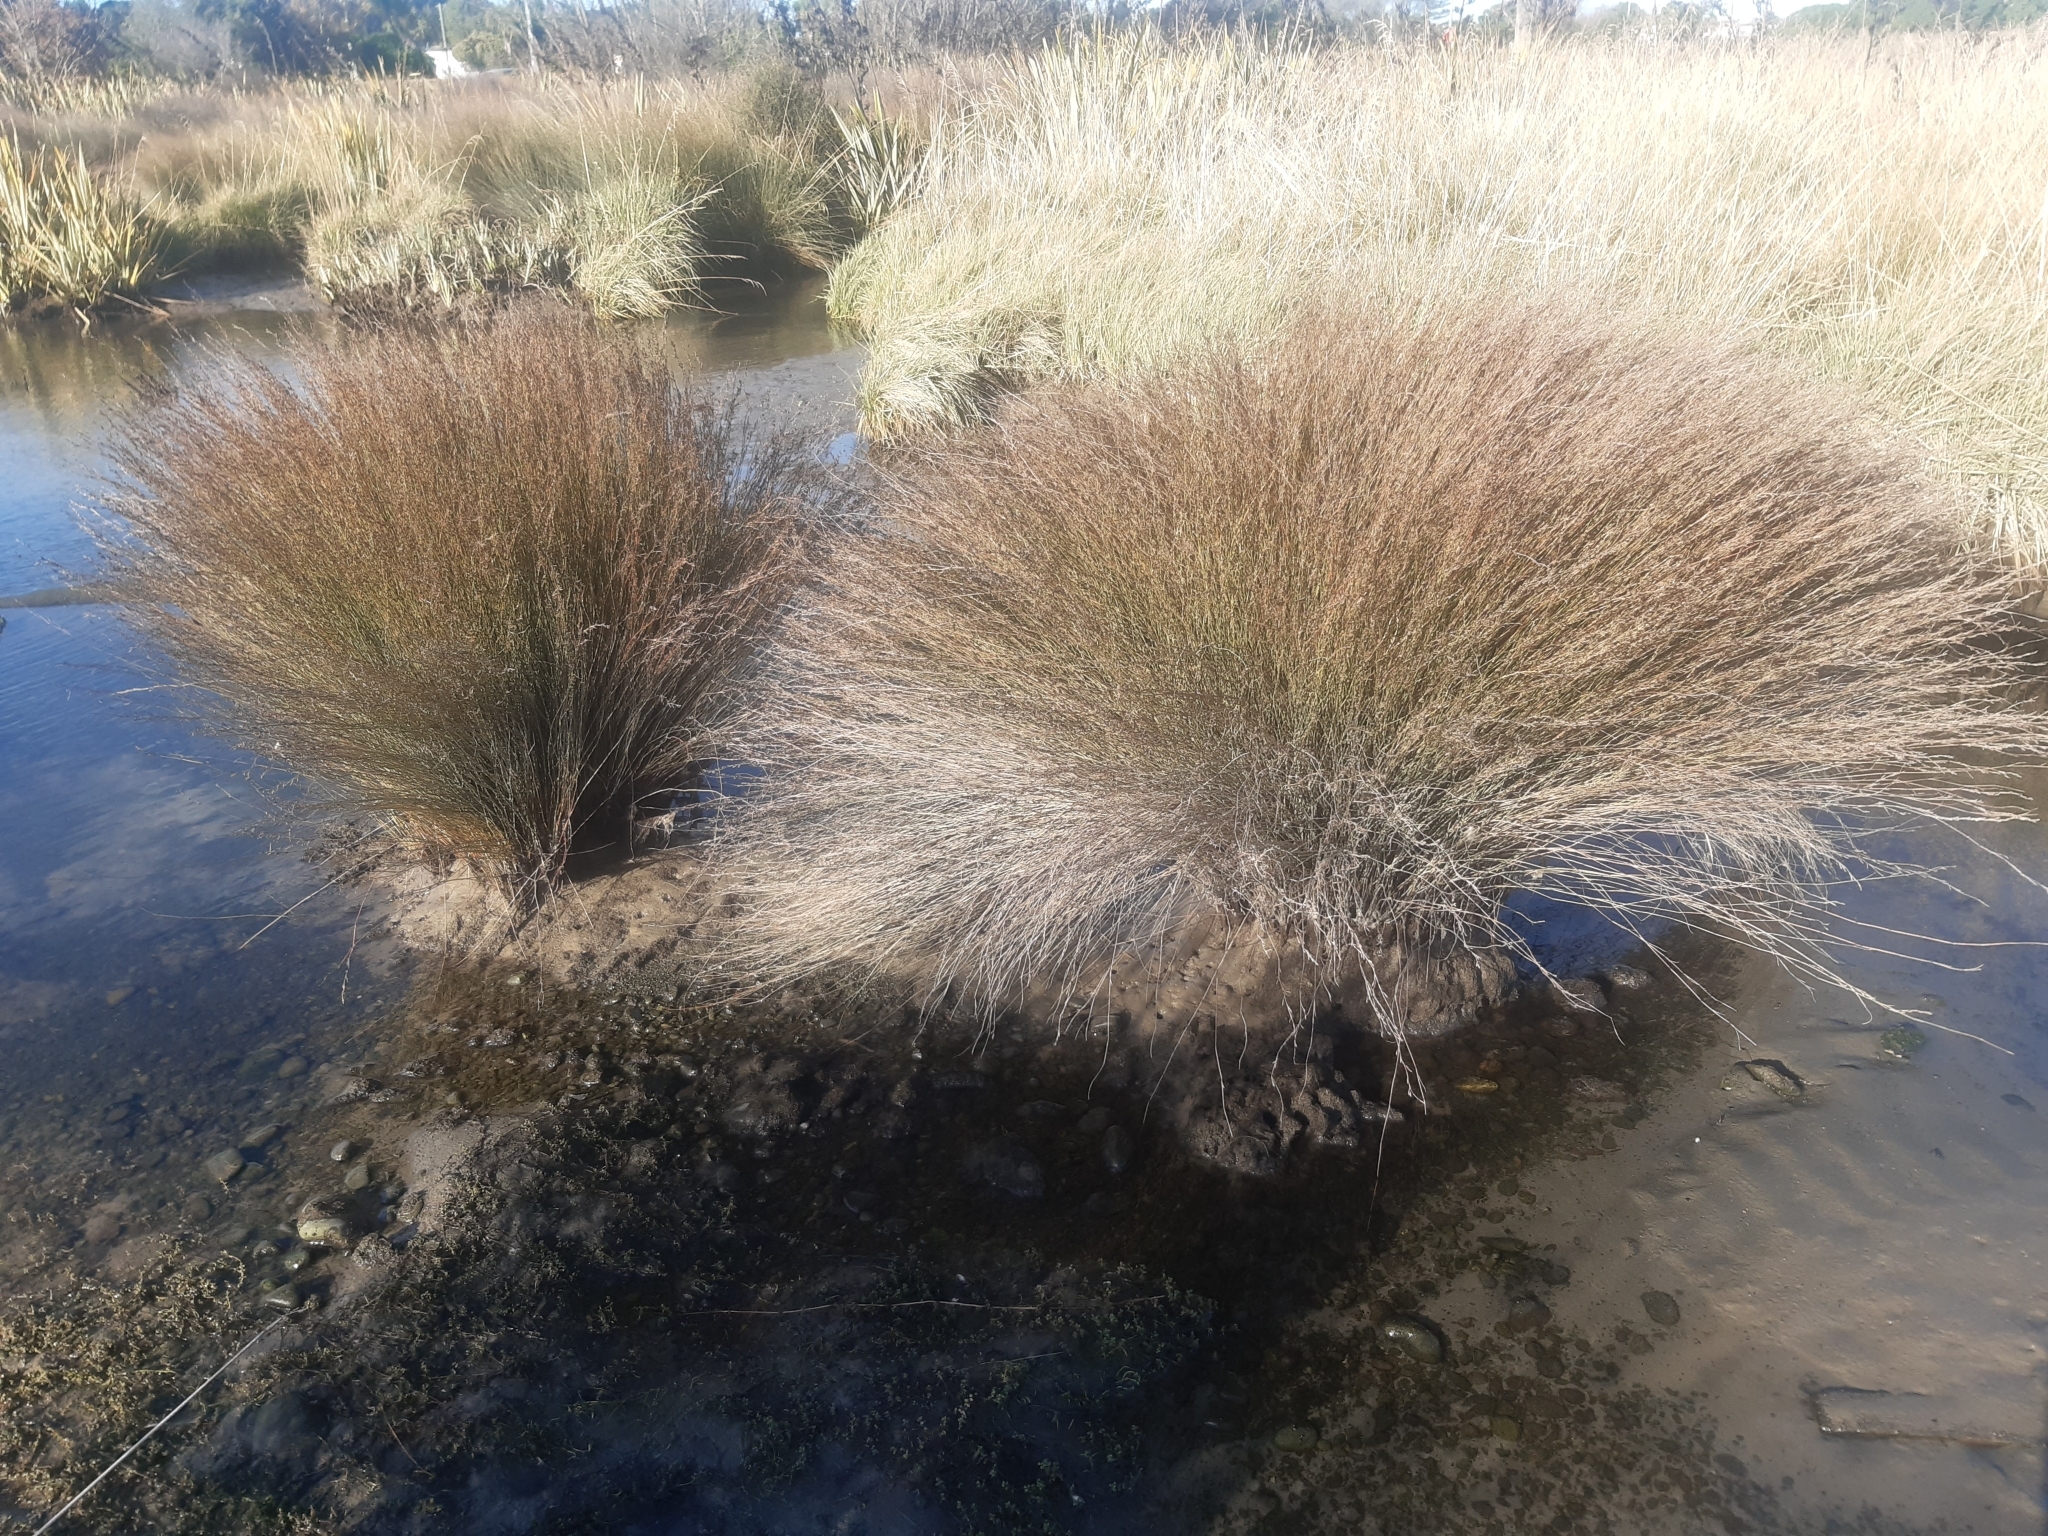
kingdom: Plantae
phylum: Tracheophyta
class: Liliopsida
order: Poales
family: Restionaceae
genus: Apodasmia
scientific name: Apodasmia similis
